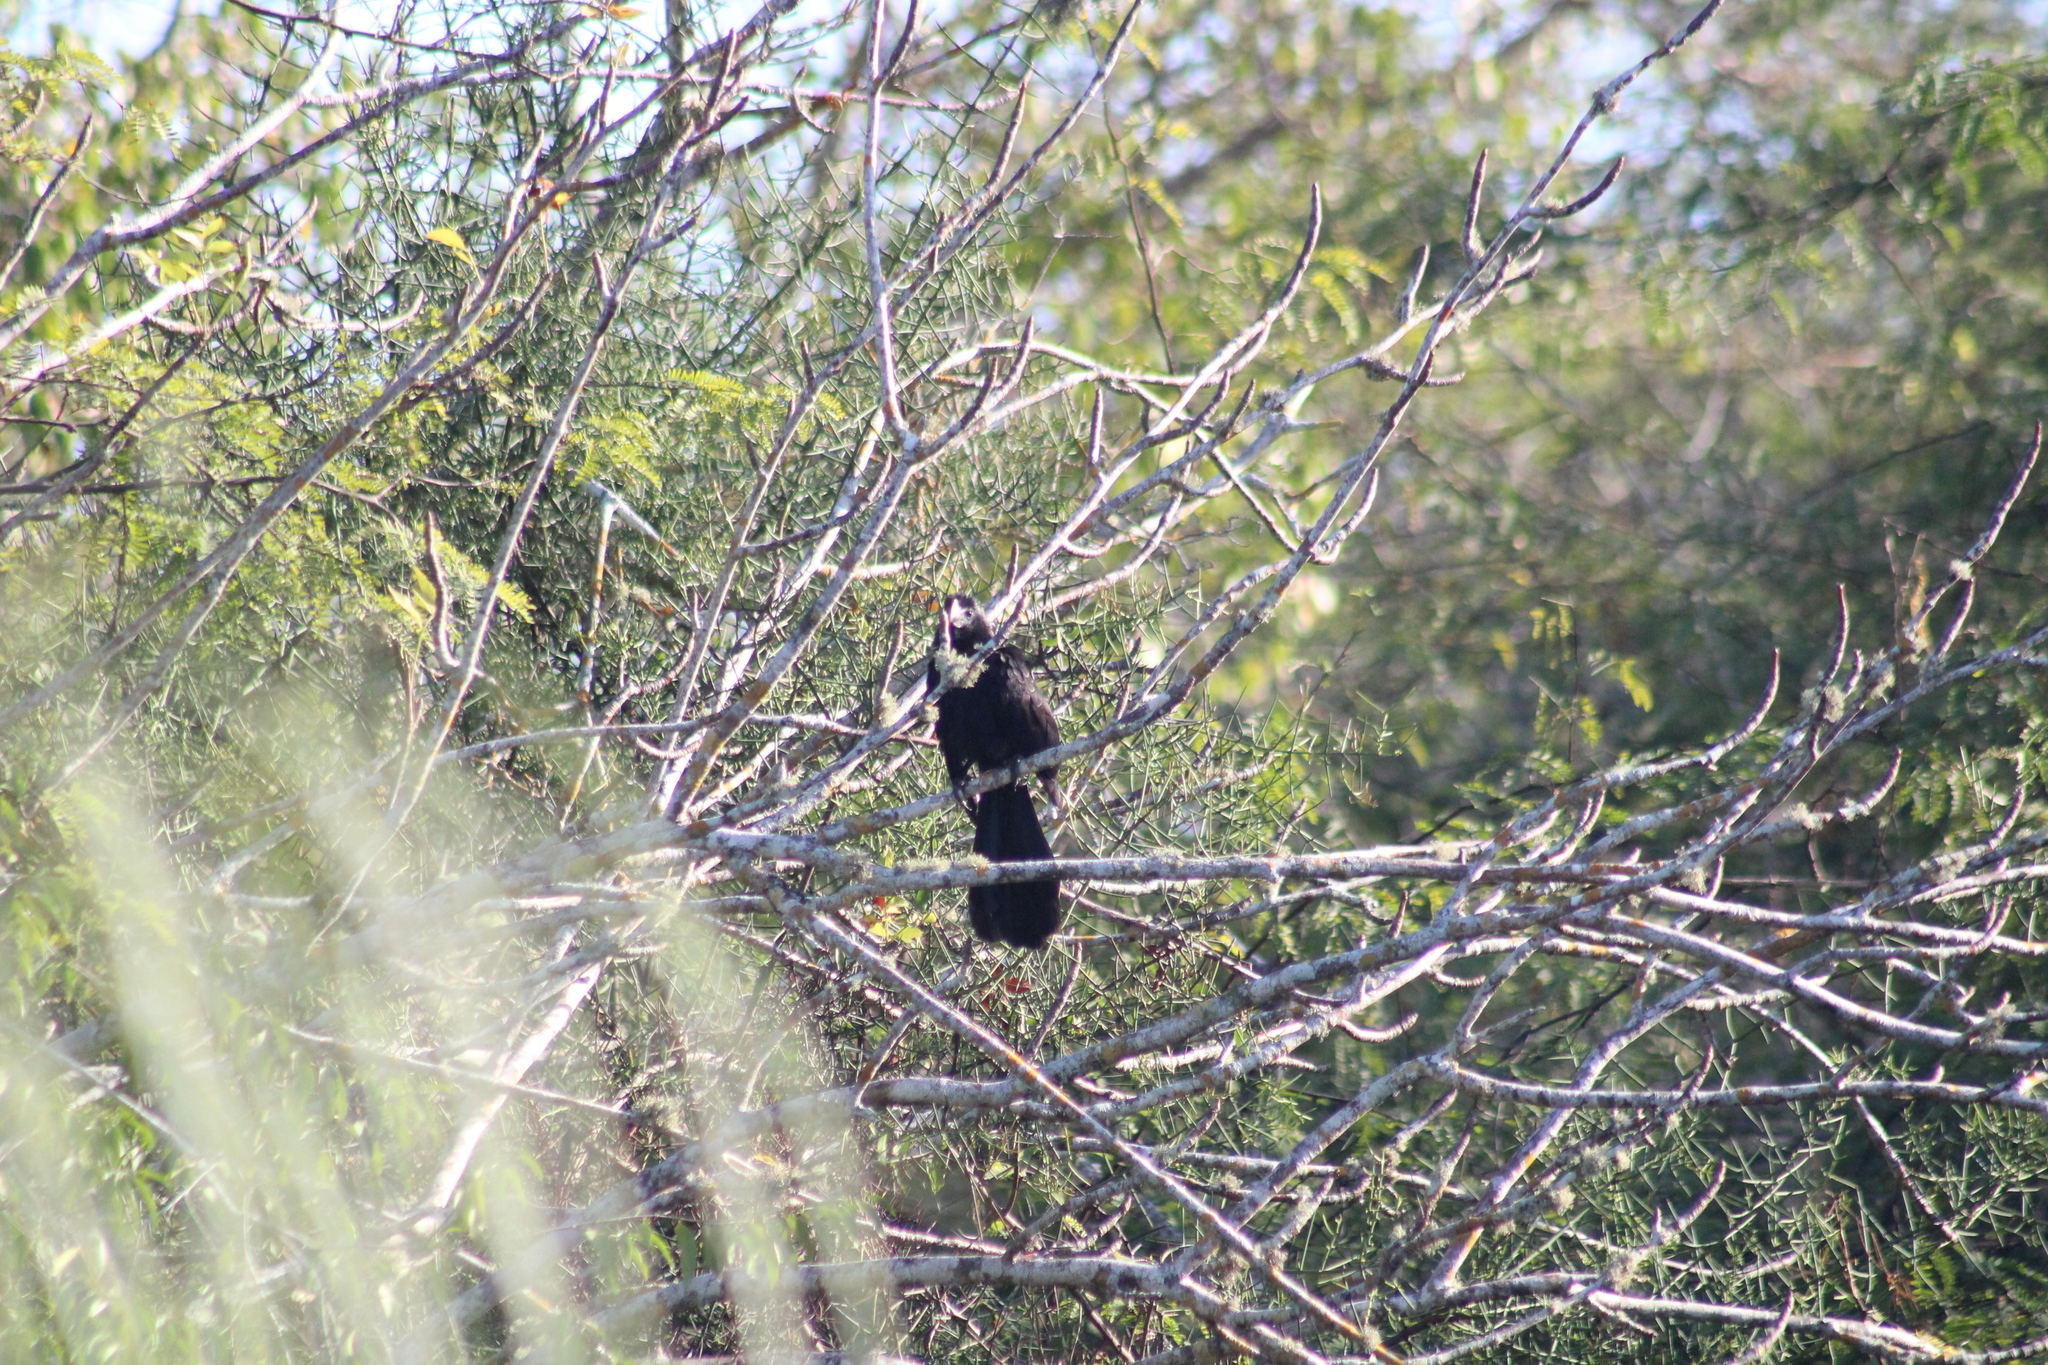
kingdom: Animalia
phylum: Chordata
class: Aves
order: Cuculiformes
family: Cuculidae
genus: Crotophaga
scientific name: Crotophaga ani
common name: Smooth-billed ani
